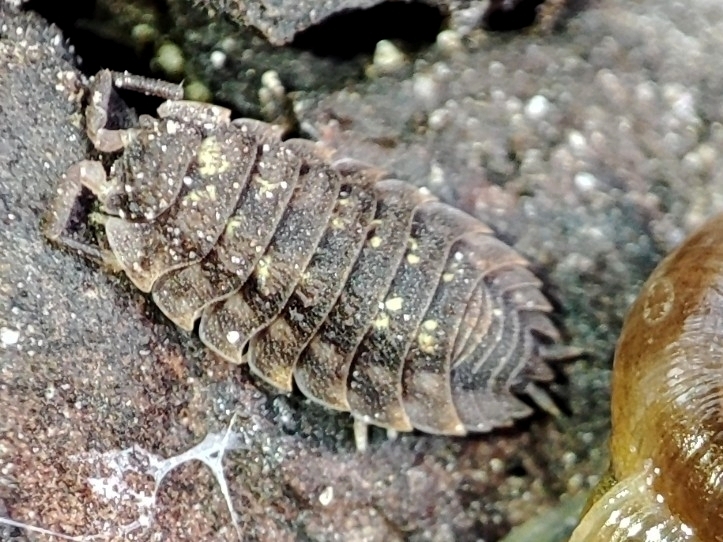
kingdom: Animalia
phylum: Arthropoda
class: Malacostraca
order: Isopoda
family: Oniscidae
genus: Oniscus
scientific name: Oniscus asellus
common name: Common shiny woodlouse
